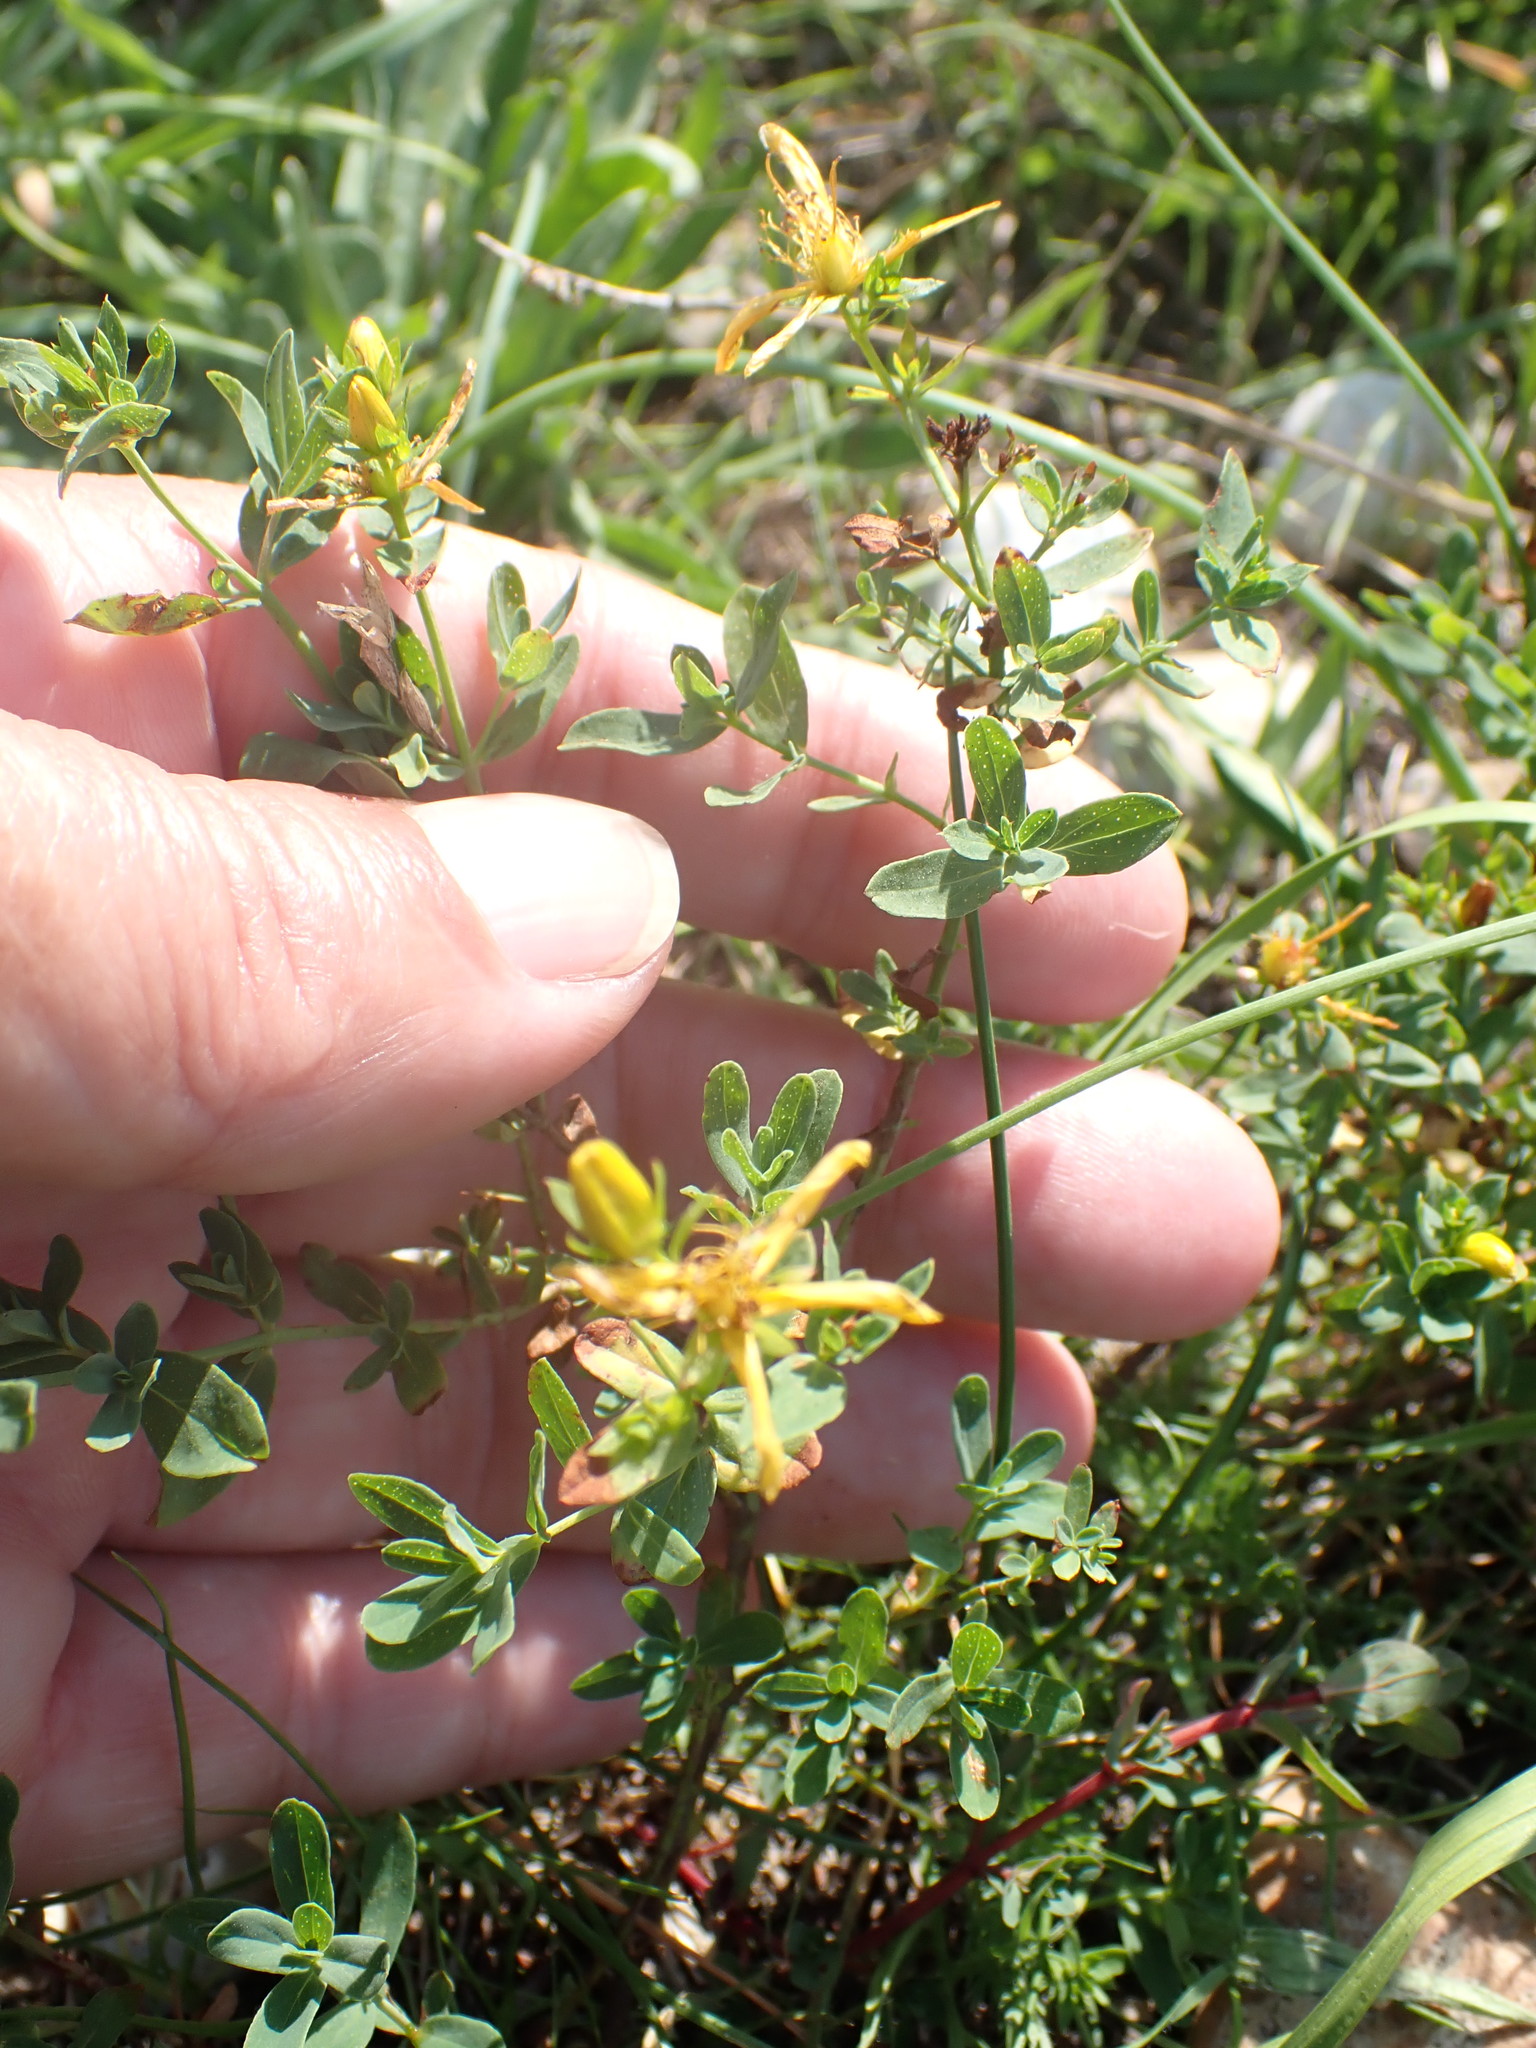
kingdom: Plantae
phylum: Tracheophyta
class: Magnoliopsida
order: Malpighiales
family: Hypericaceae
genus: Hypericum
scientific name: Hypericum perforatum
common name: Common st. johnswort
